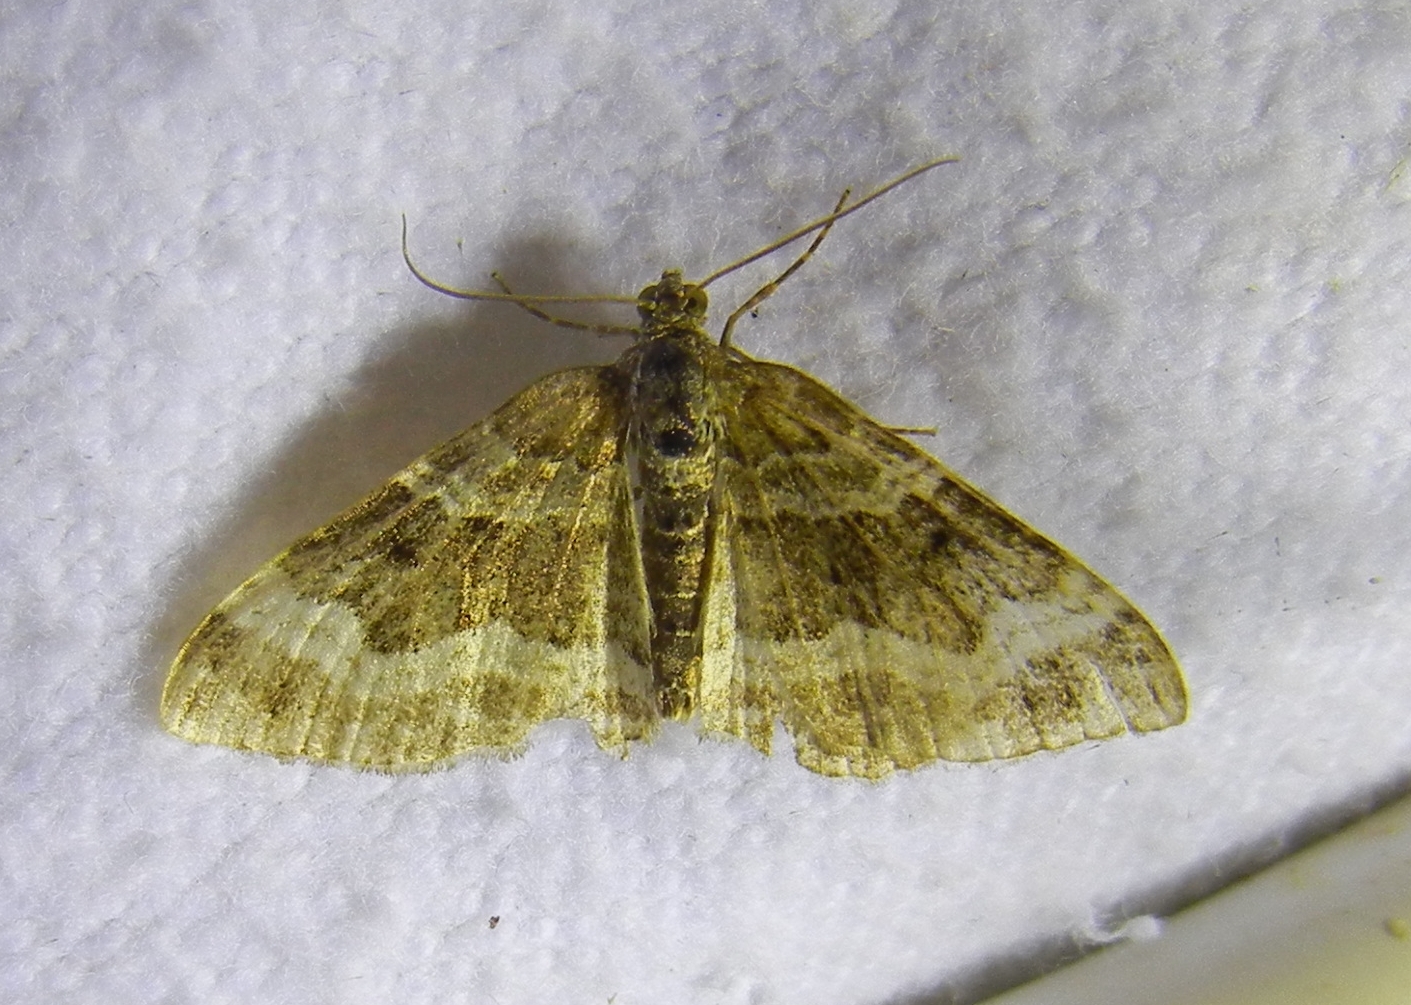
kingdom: Animalia
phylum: Arthropoda
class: Insecta
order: Lepidoptera
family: Geometridae
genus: Epirrhoe
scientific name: Epirrhoe alternata
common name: Common carpet
